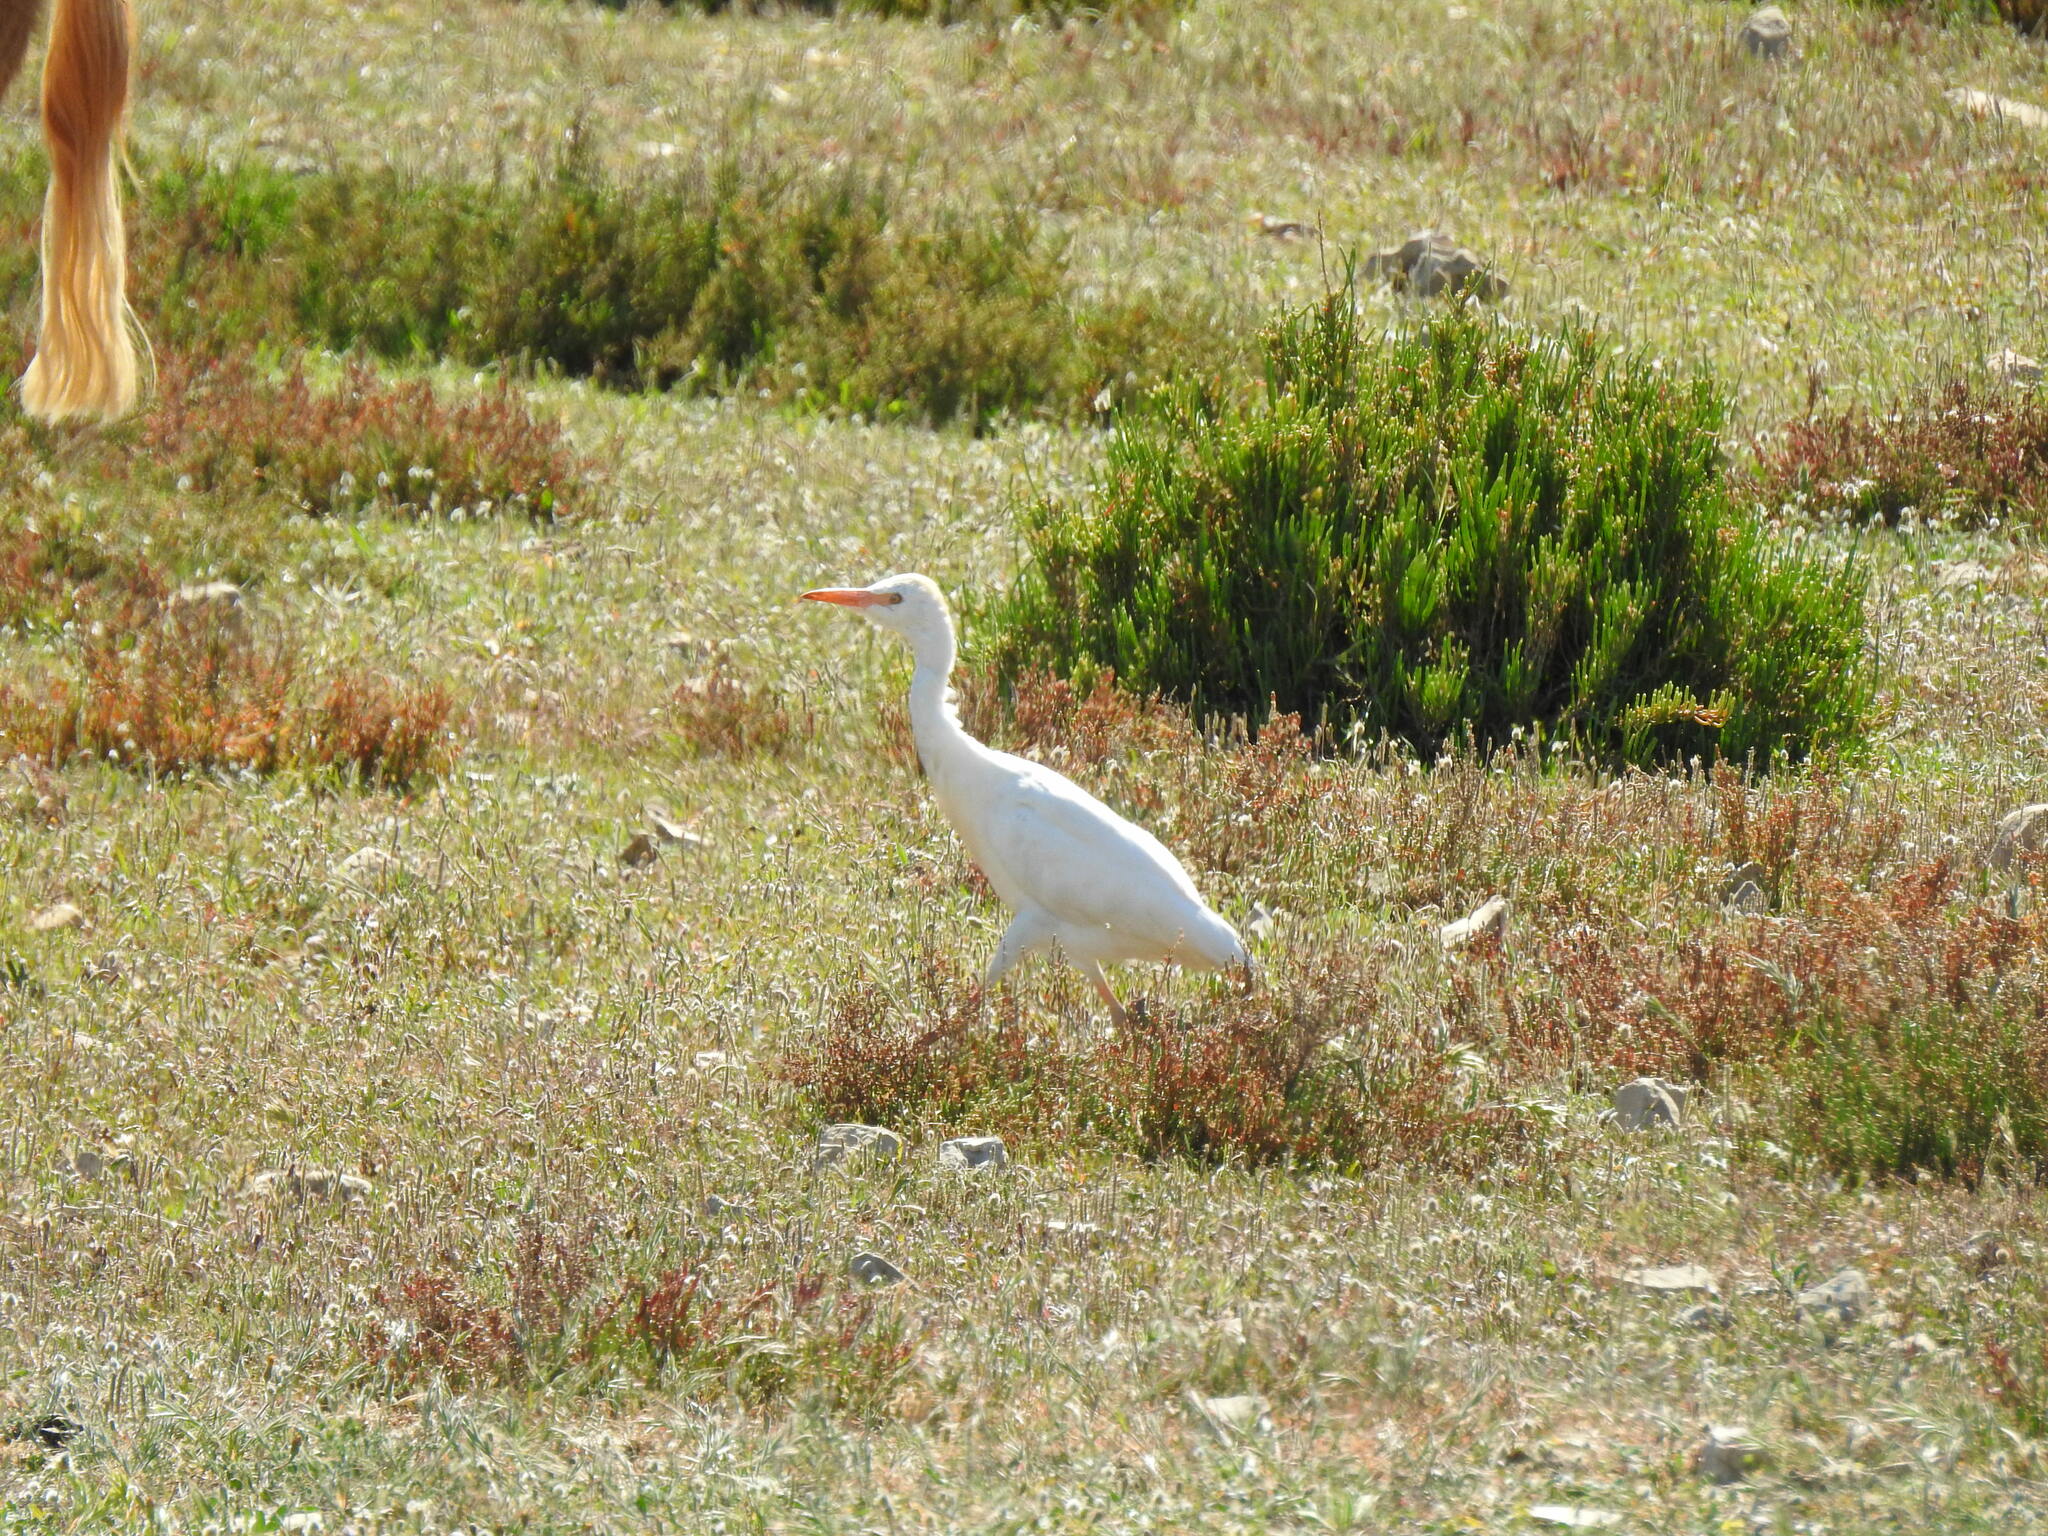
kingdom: Animalia
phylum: Chordata
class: Aves
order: Pelecaniformes
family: Ardeidae
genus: Bubulcus
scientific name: Bubulcus ibis
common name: Cattle egret
